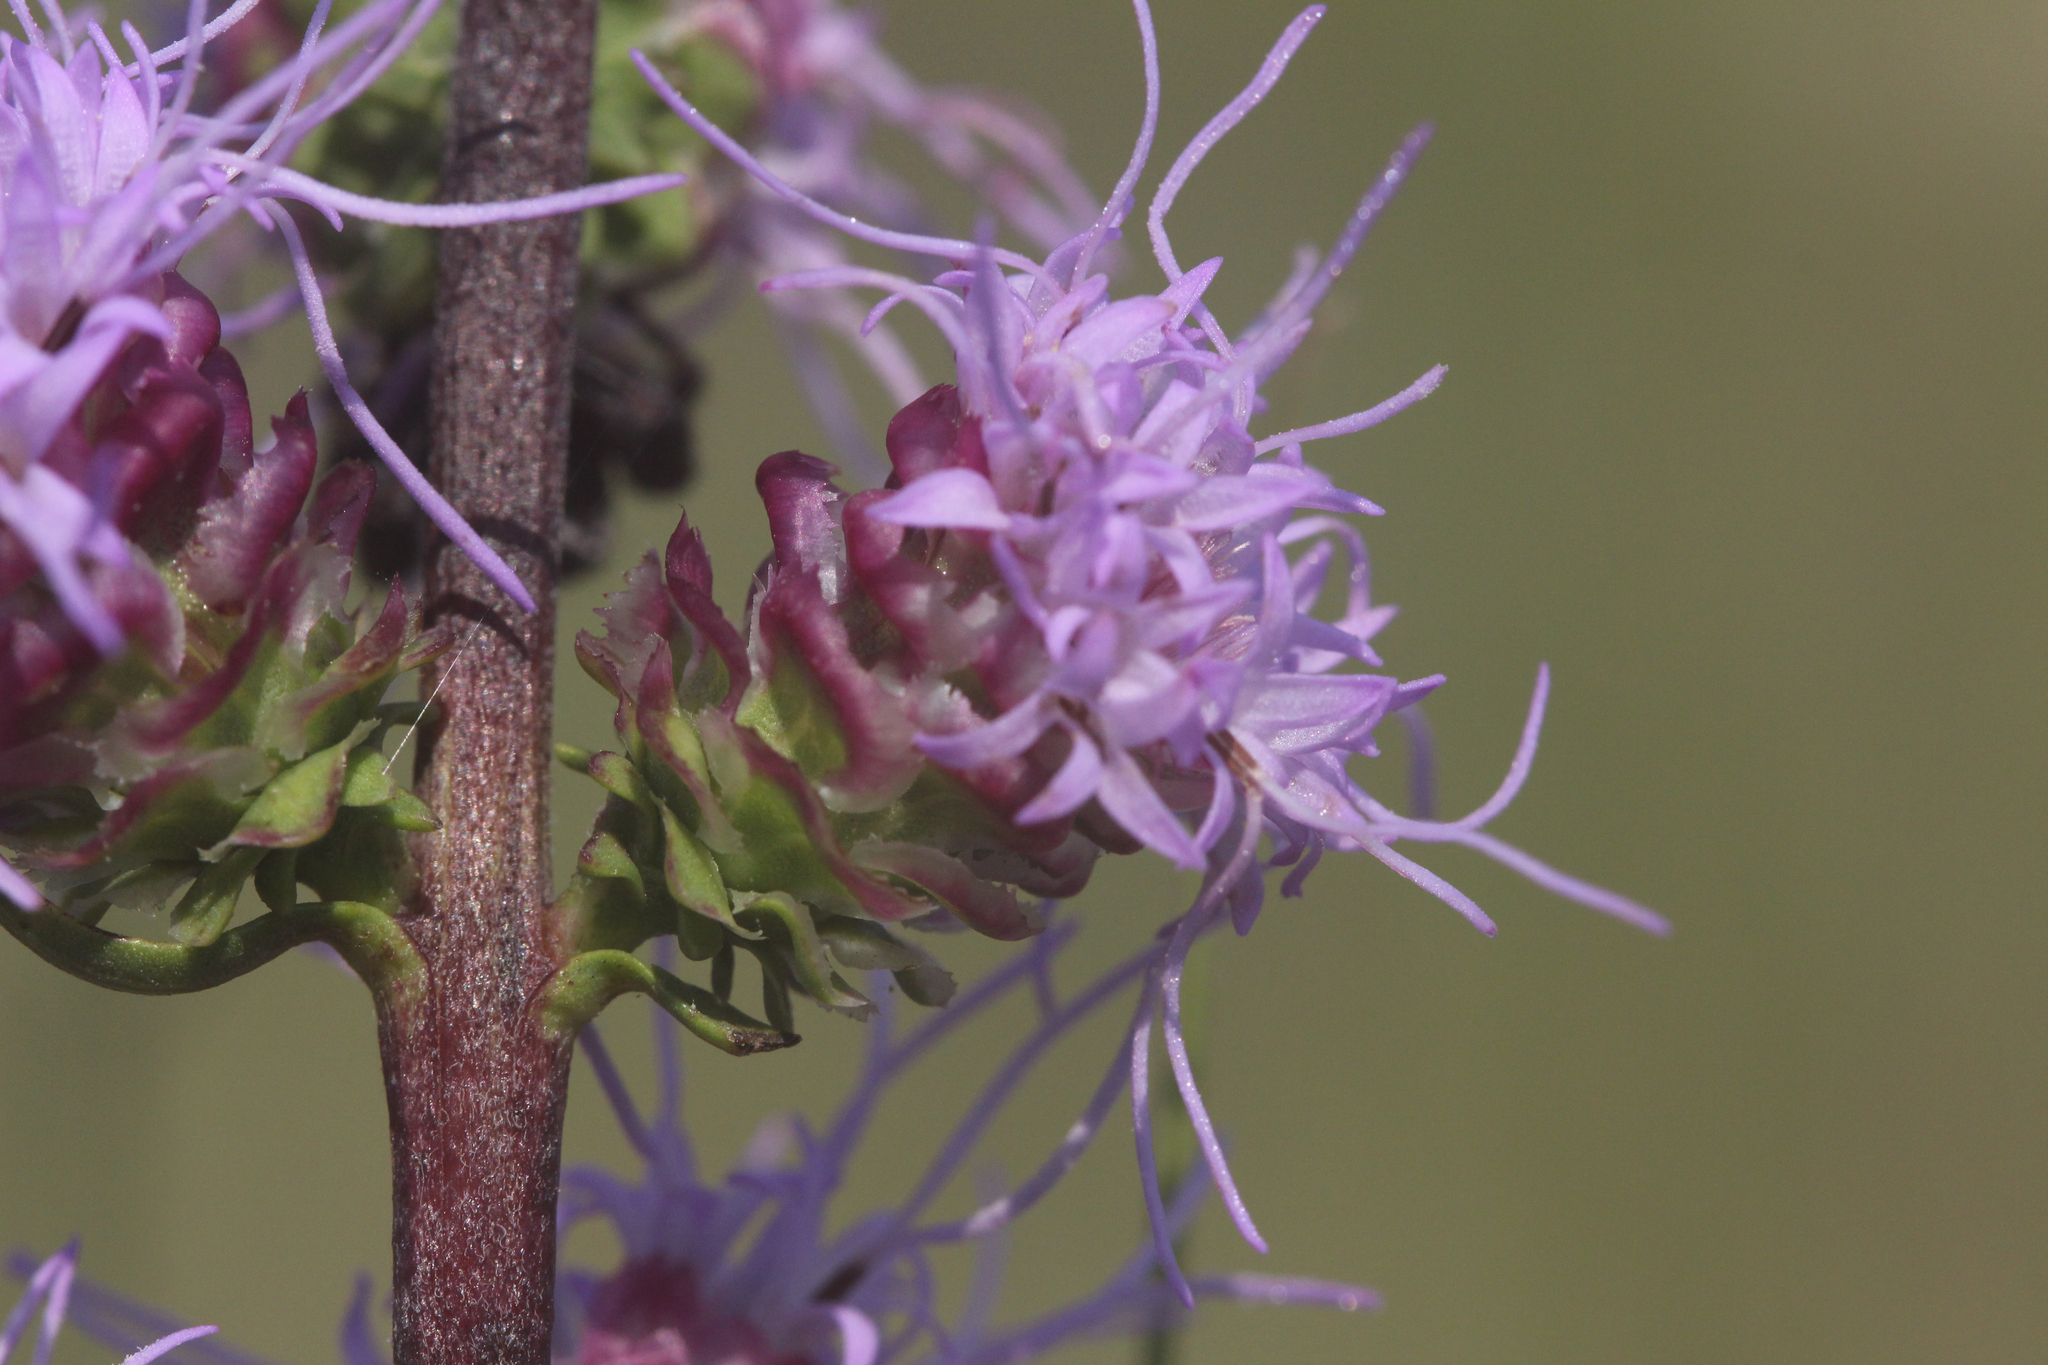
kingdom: Plantae
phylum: Tracheophyta
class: Magnoliopsida
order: Asterales
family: Asteraceae
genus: Liatris
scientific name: Liatris aspera
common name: Lacerate blazing-star
